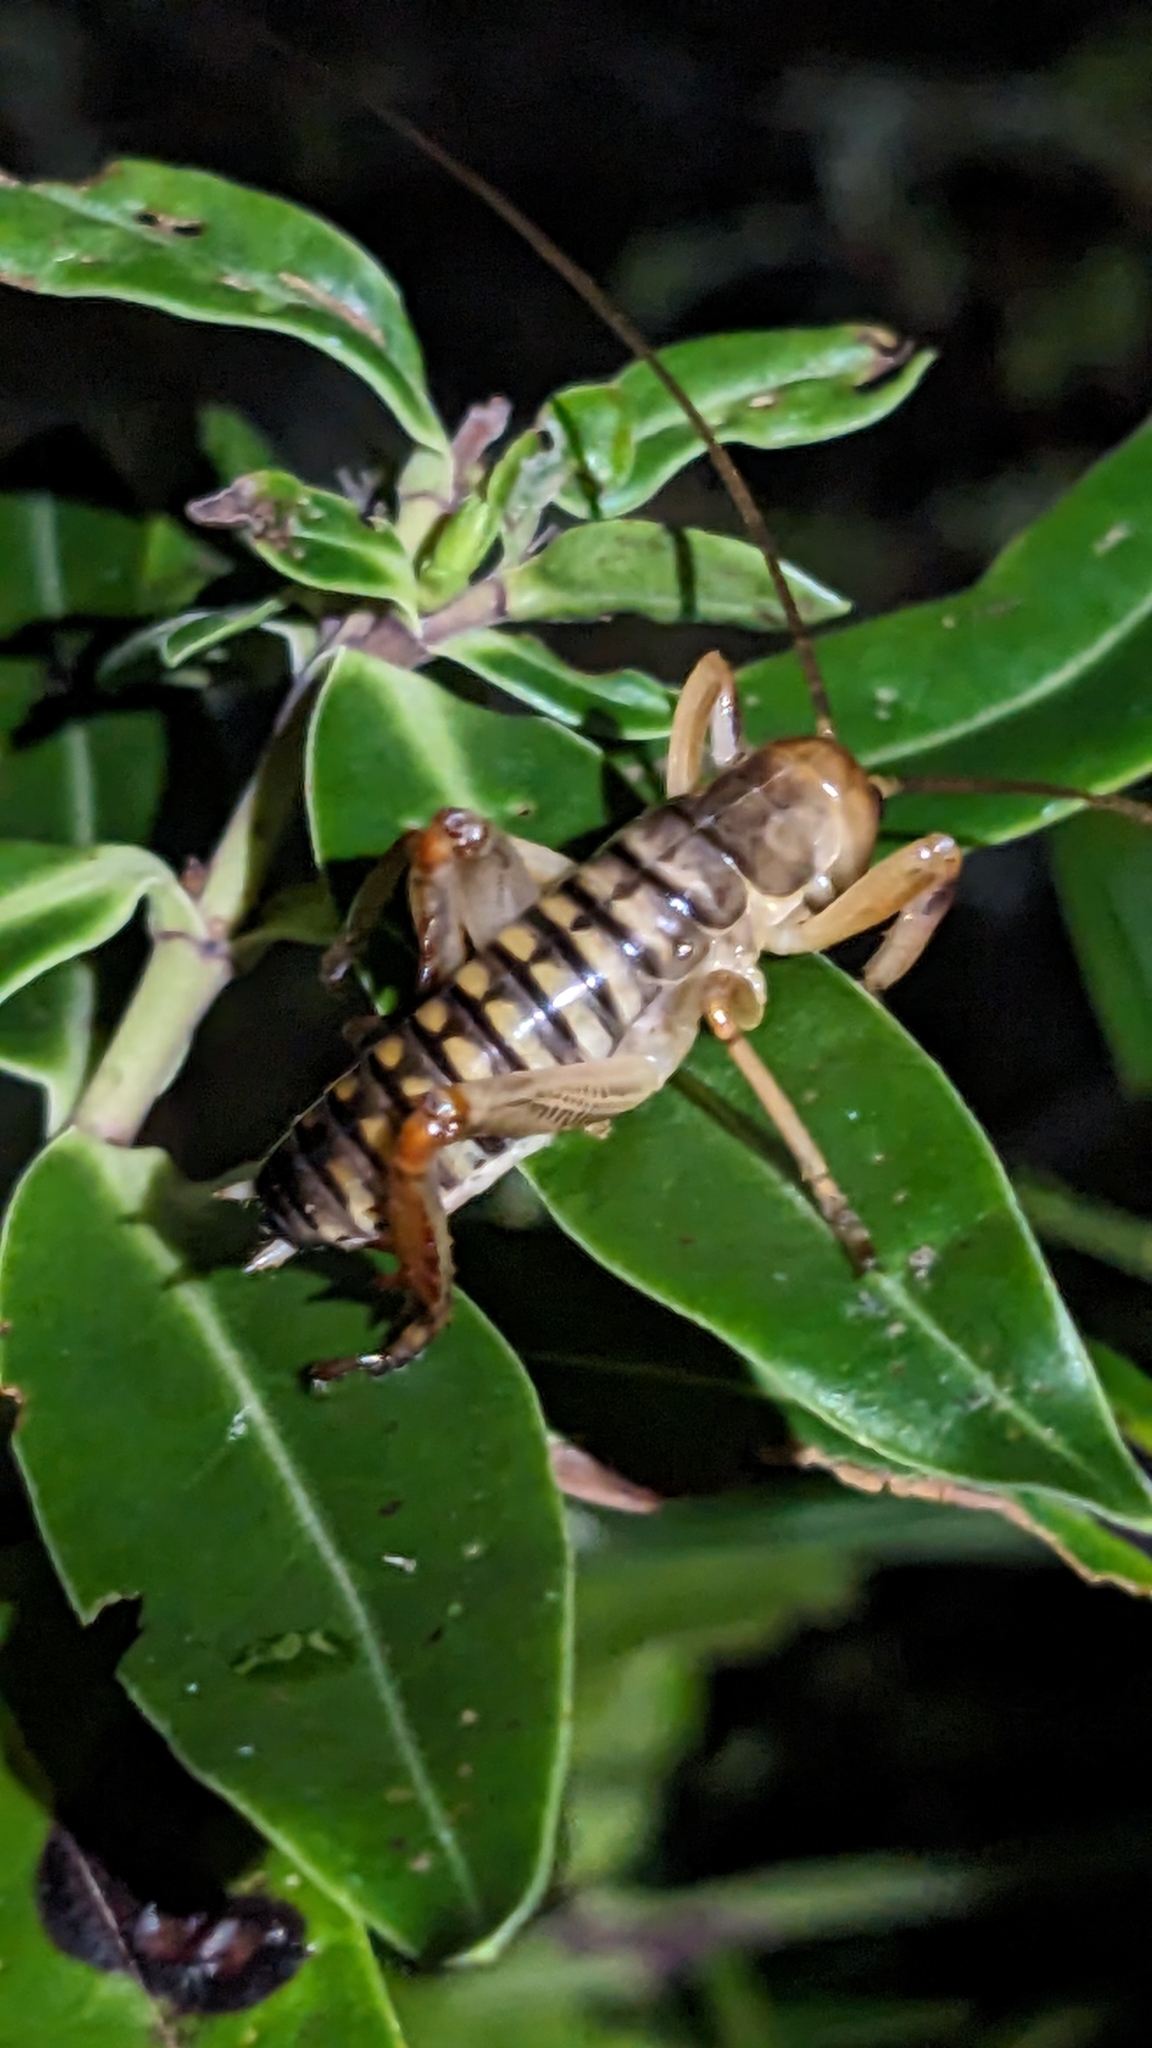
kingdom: Animalia
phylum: Arthropoda
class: Insecta
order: Orthoptera
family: Anostostomatidae
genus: Hemideina
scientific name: Hemideina crassidens
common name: Wellington tree weta
